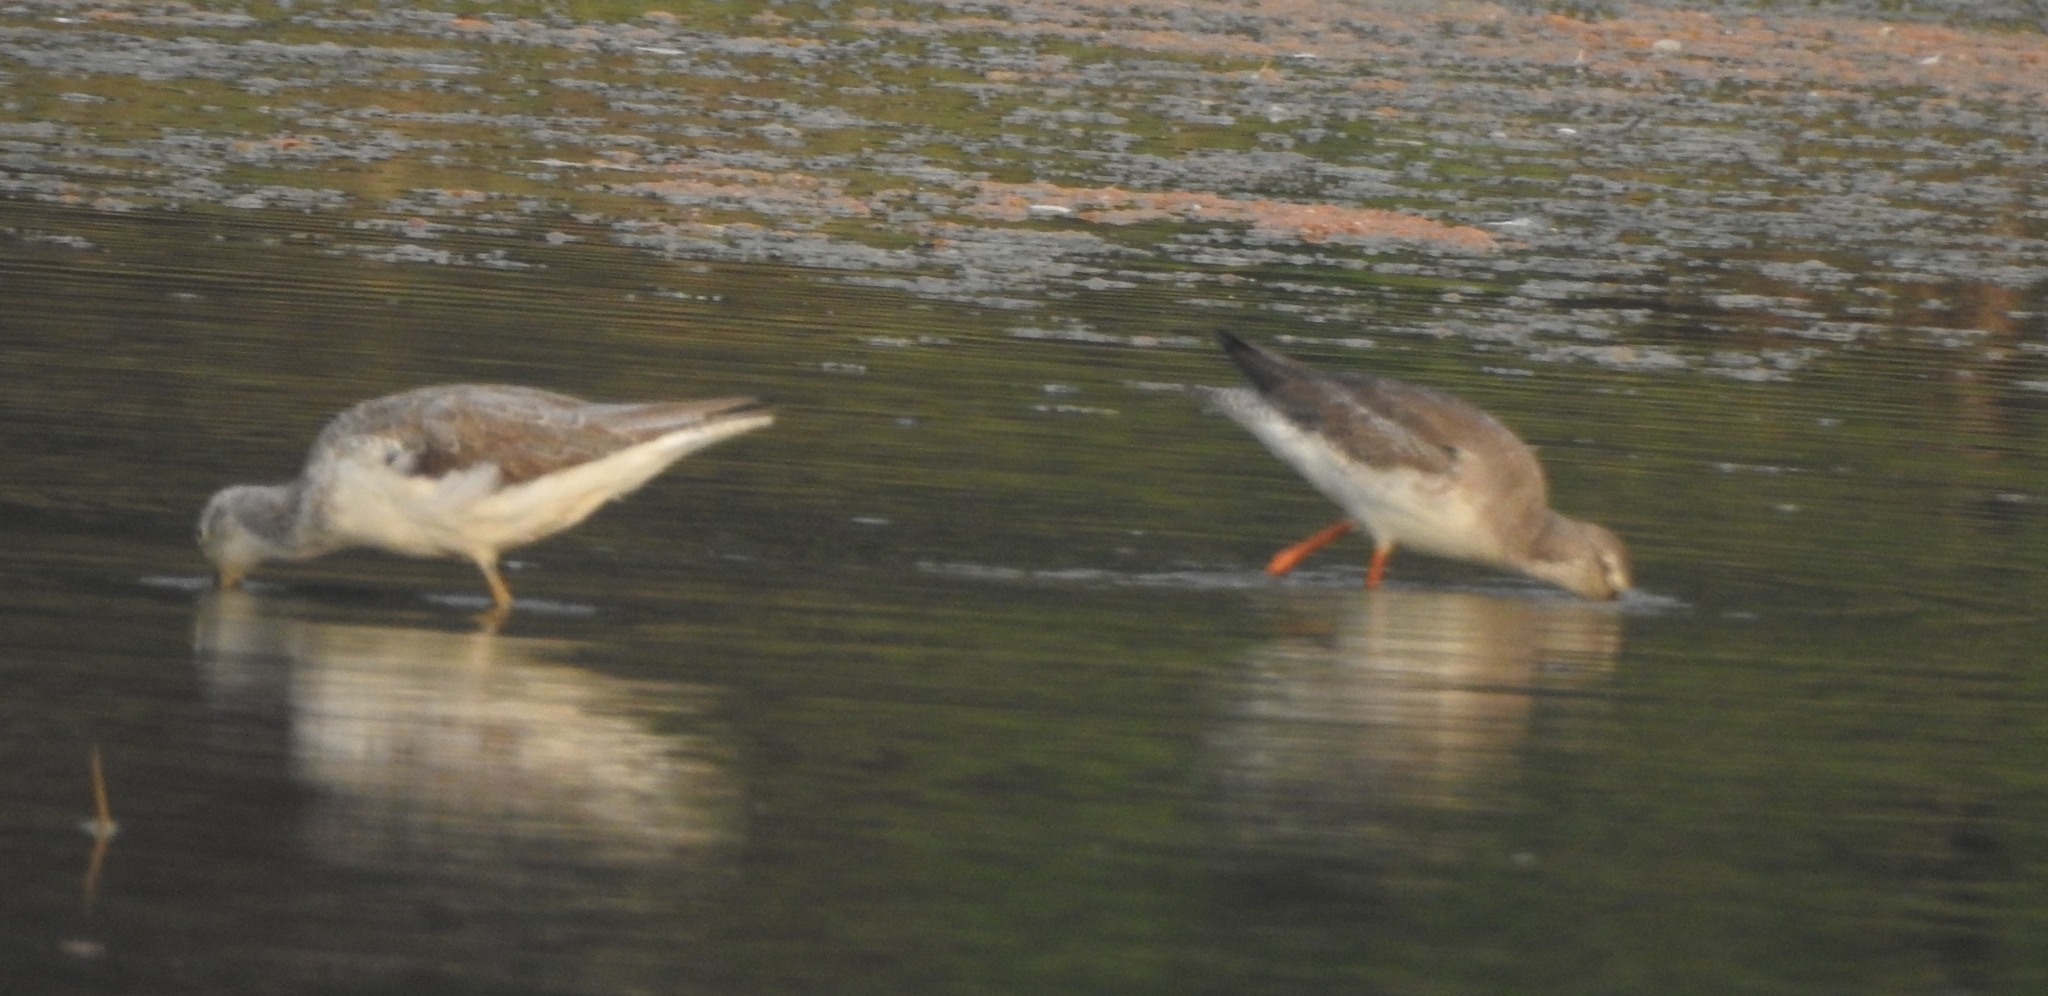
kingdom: Animalia
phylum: Chordata
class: Aves
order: Charadriiformes
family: Scolopacidae
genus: Tringa
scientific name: Tringa nebularia
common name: Common greenshank
